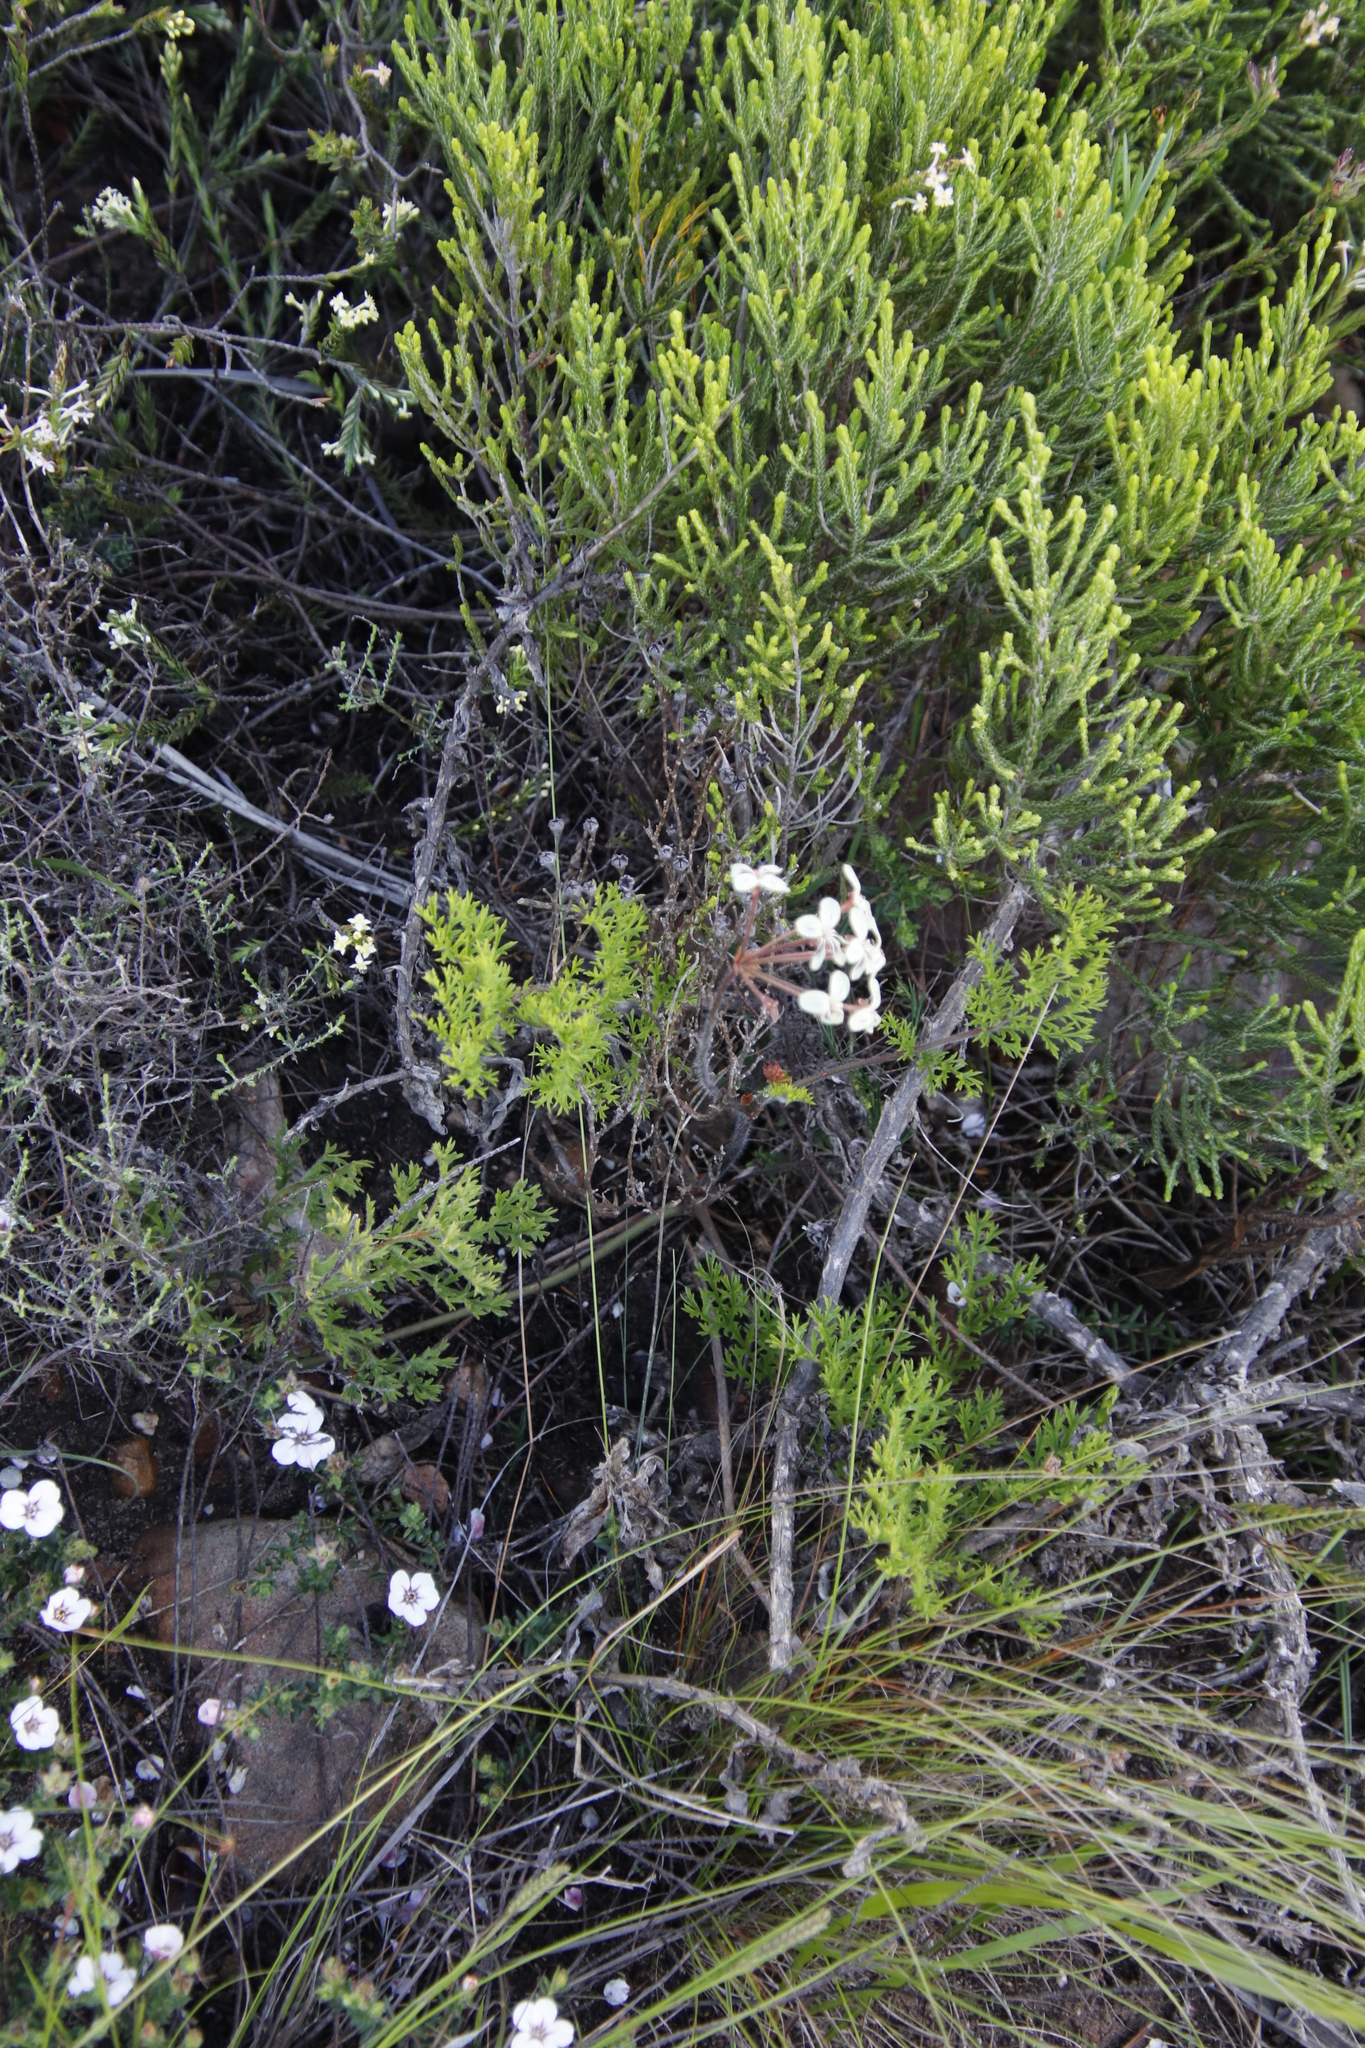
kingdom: Plantae
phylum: Tracheophyta
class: Magnoliopsida
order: Geraniales
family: Geraniaceae
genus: Pelargonium
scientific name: Pelargonium triste
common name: Night-scent pelargonium
